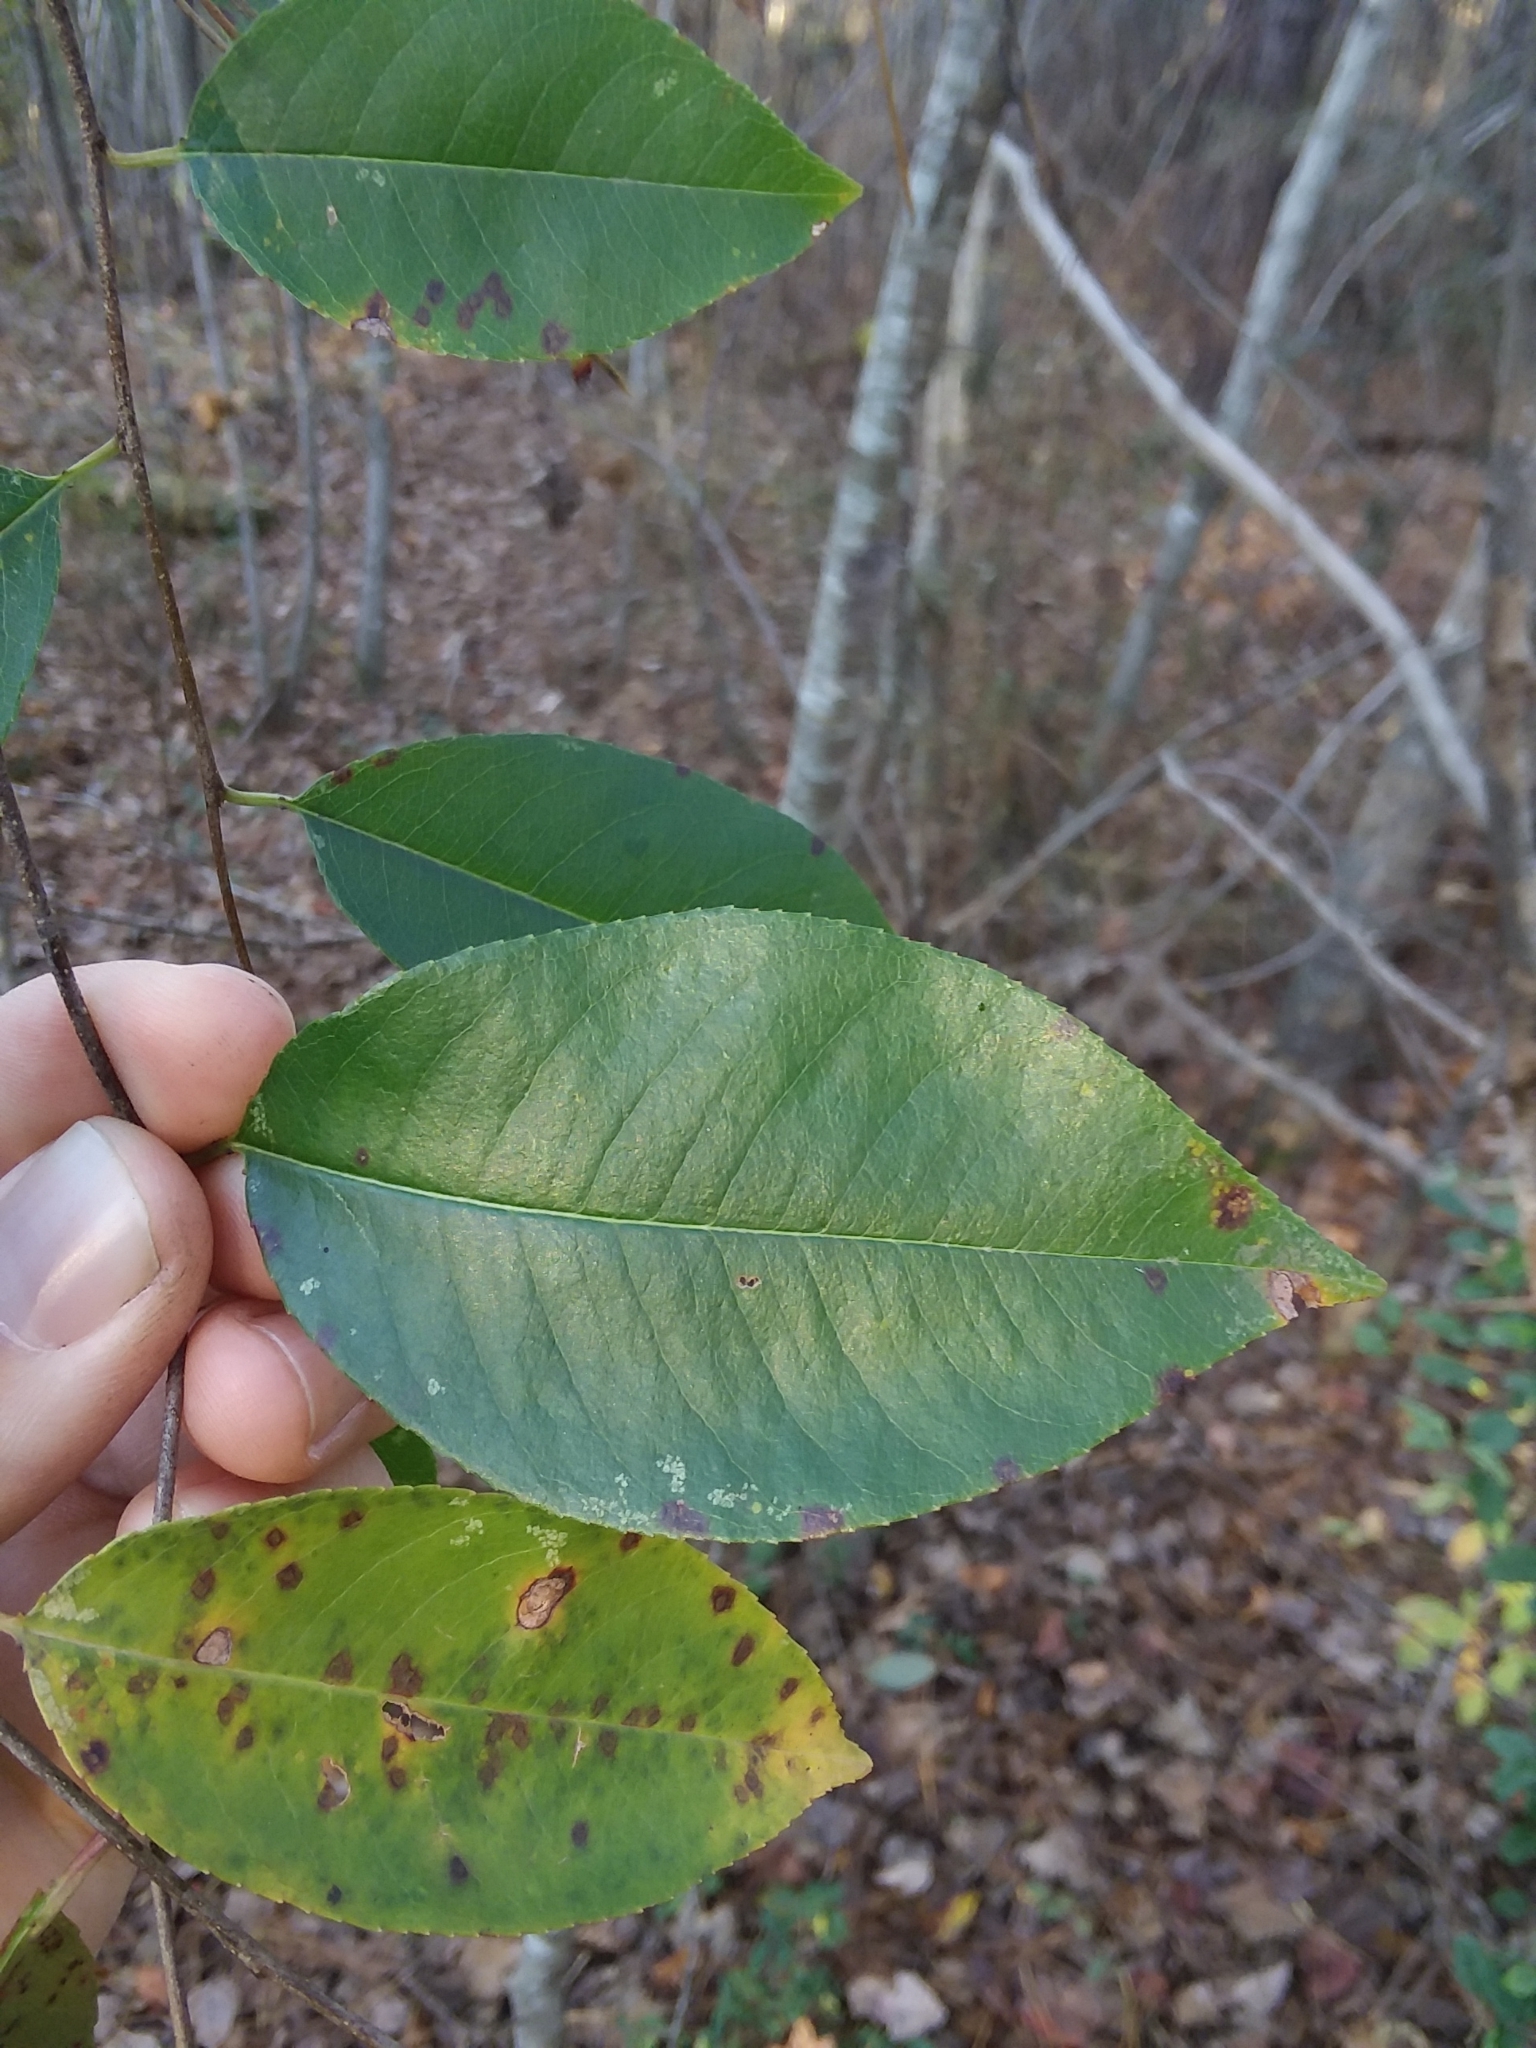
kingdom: Plantae
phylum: Tracheophyta
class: Magnoliopsida
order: Rosales
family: Rosaceae
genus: Prunus
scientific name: Prunus serotina
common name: Black cherry
